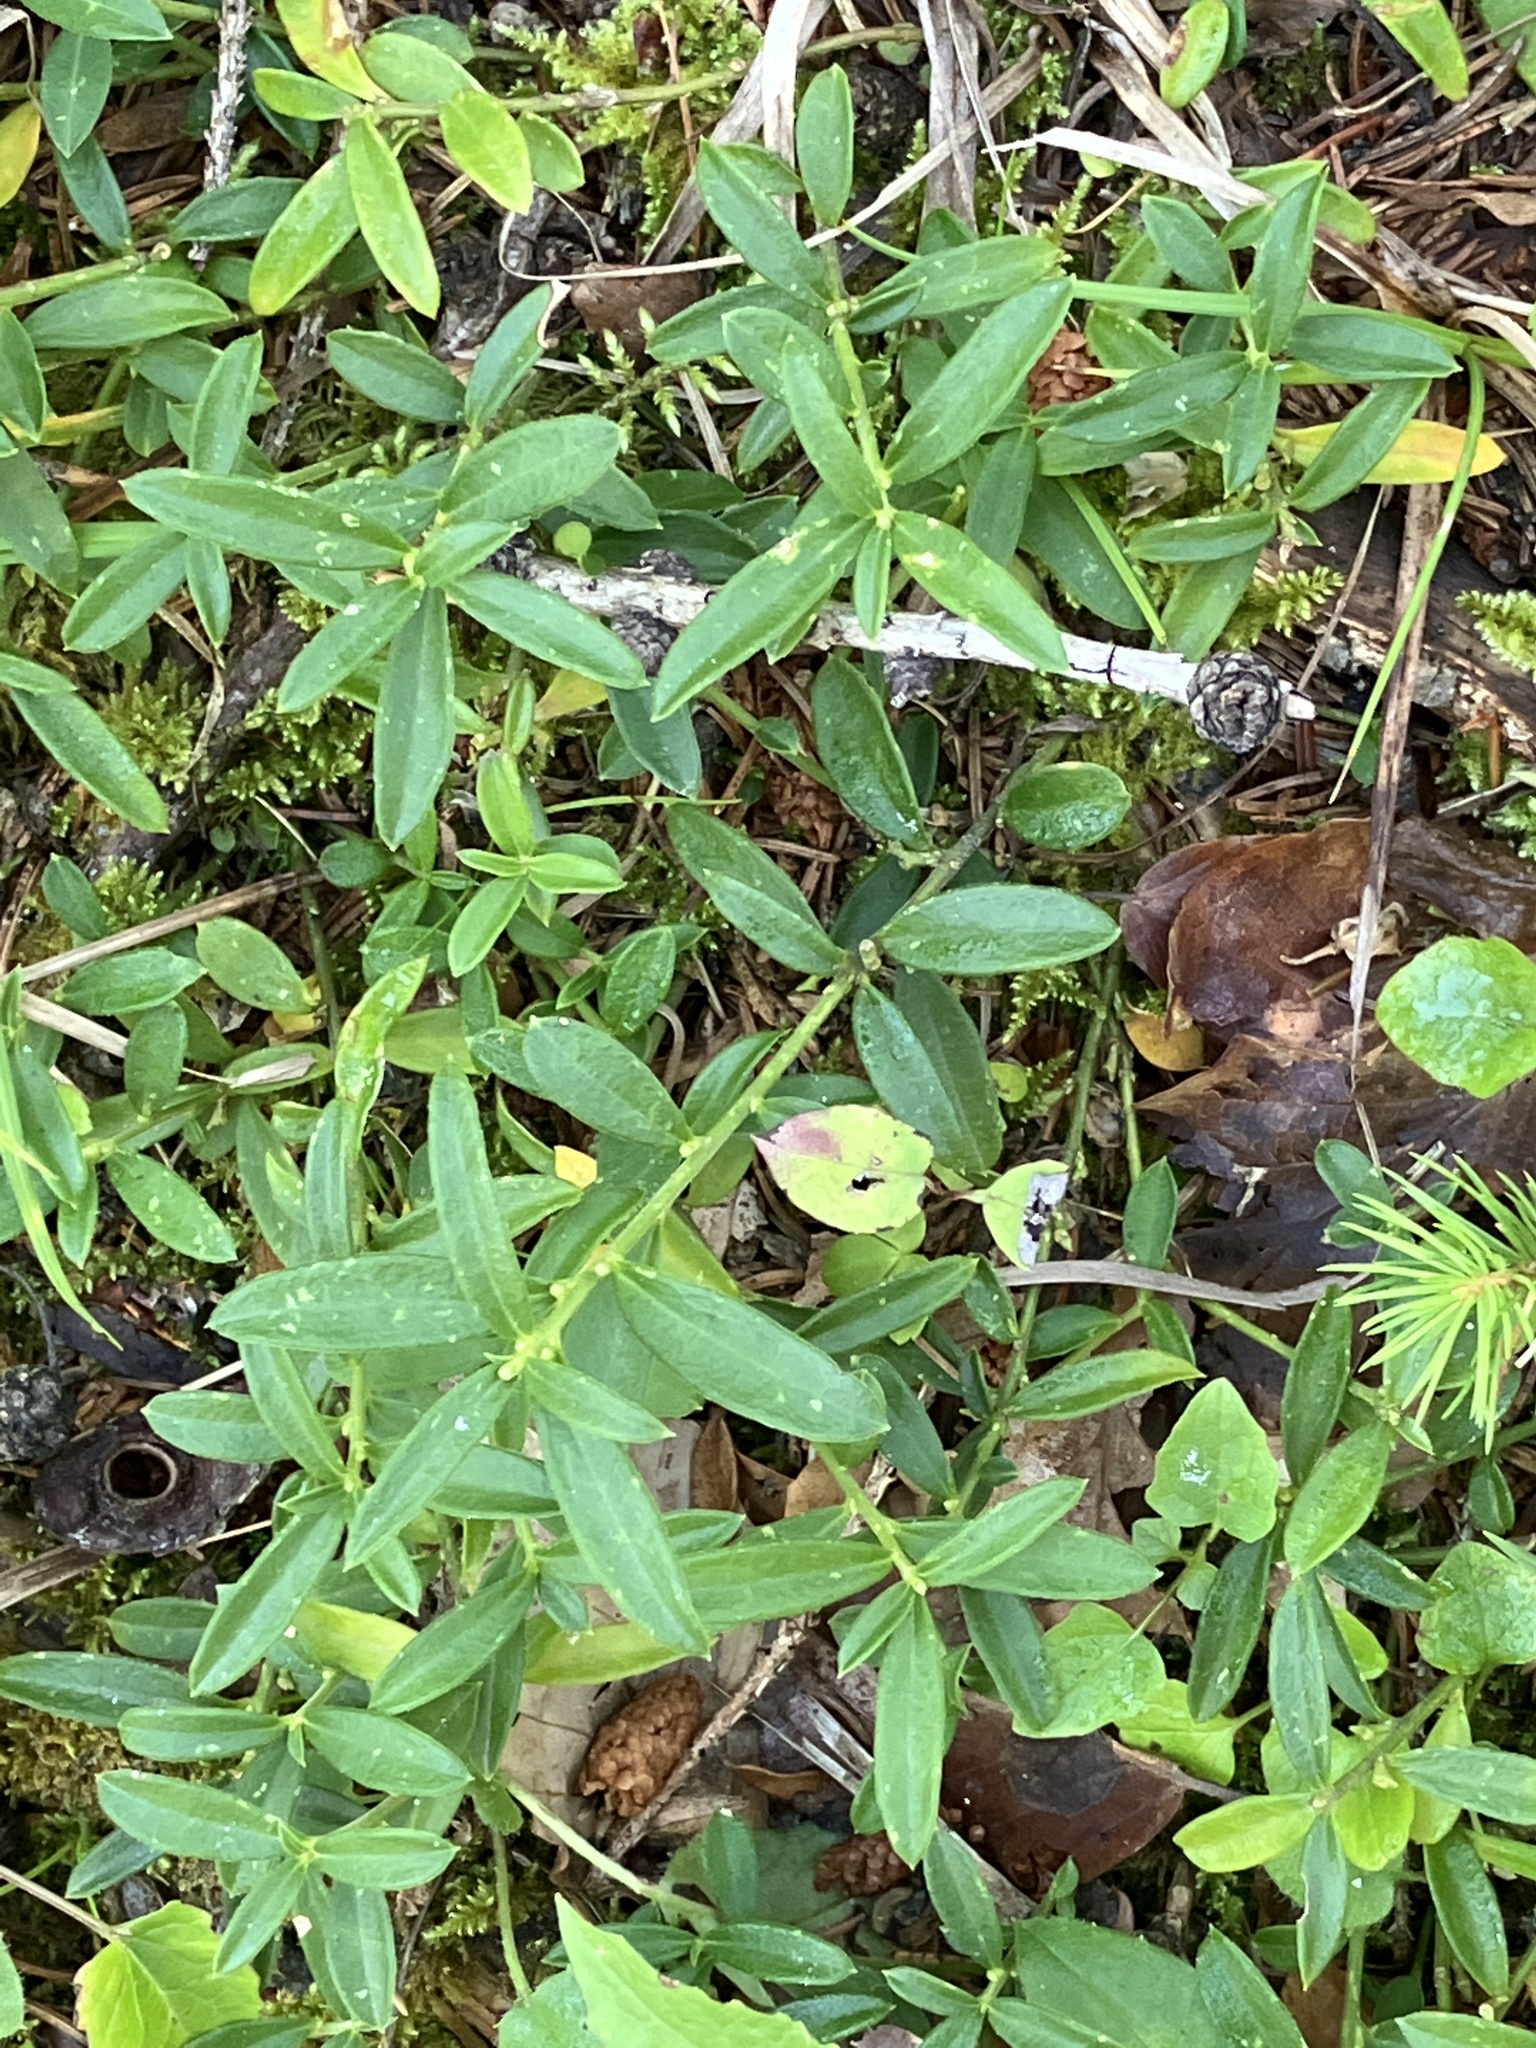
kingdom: Plantae
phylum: Tracheophyta
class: Magnoliopsida
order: Fabales
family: Polygalaceae
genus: Polygaloides
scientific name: Polygaloides chamaebuxus
